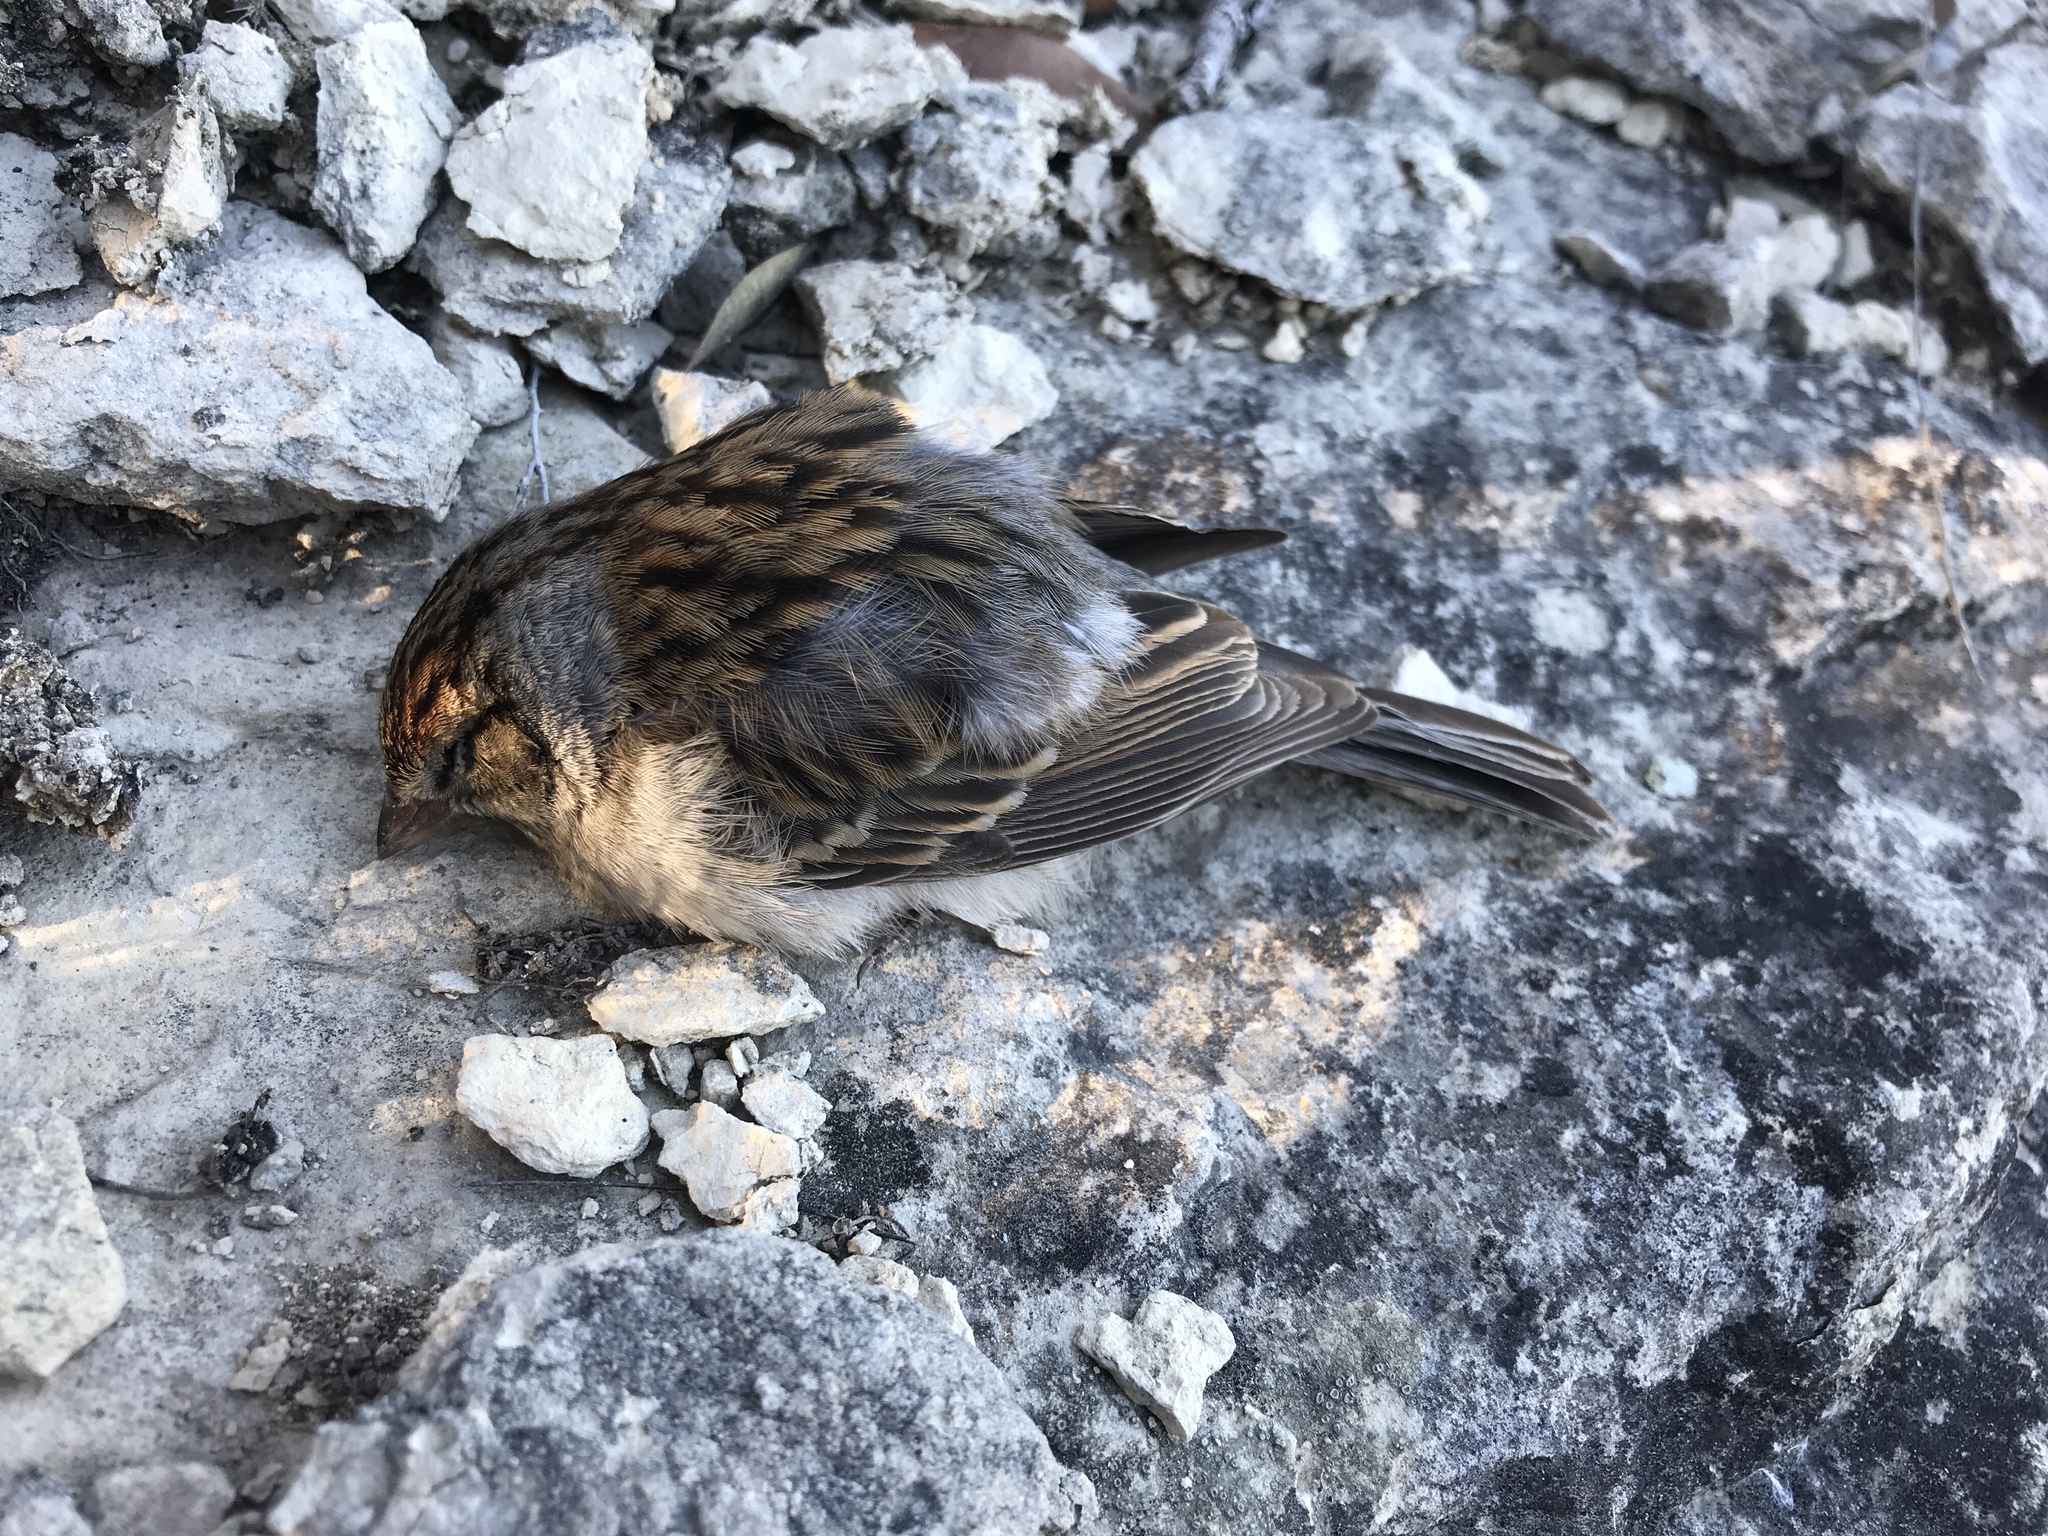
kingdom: Animalia
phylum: Chordata
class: Aves
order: Passeriformes
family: Passerellidae
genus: Spizella
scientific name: Spizella passerina
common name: Chipping sparrow
